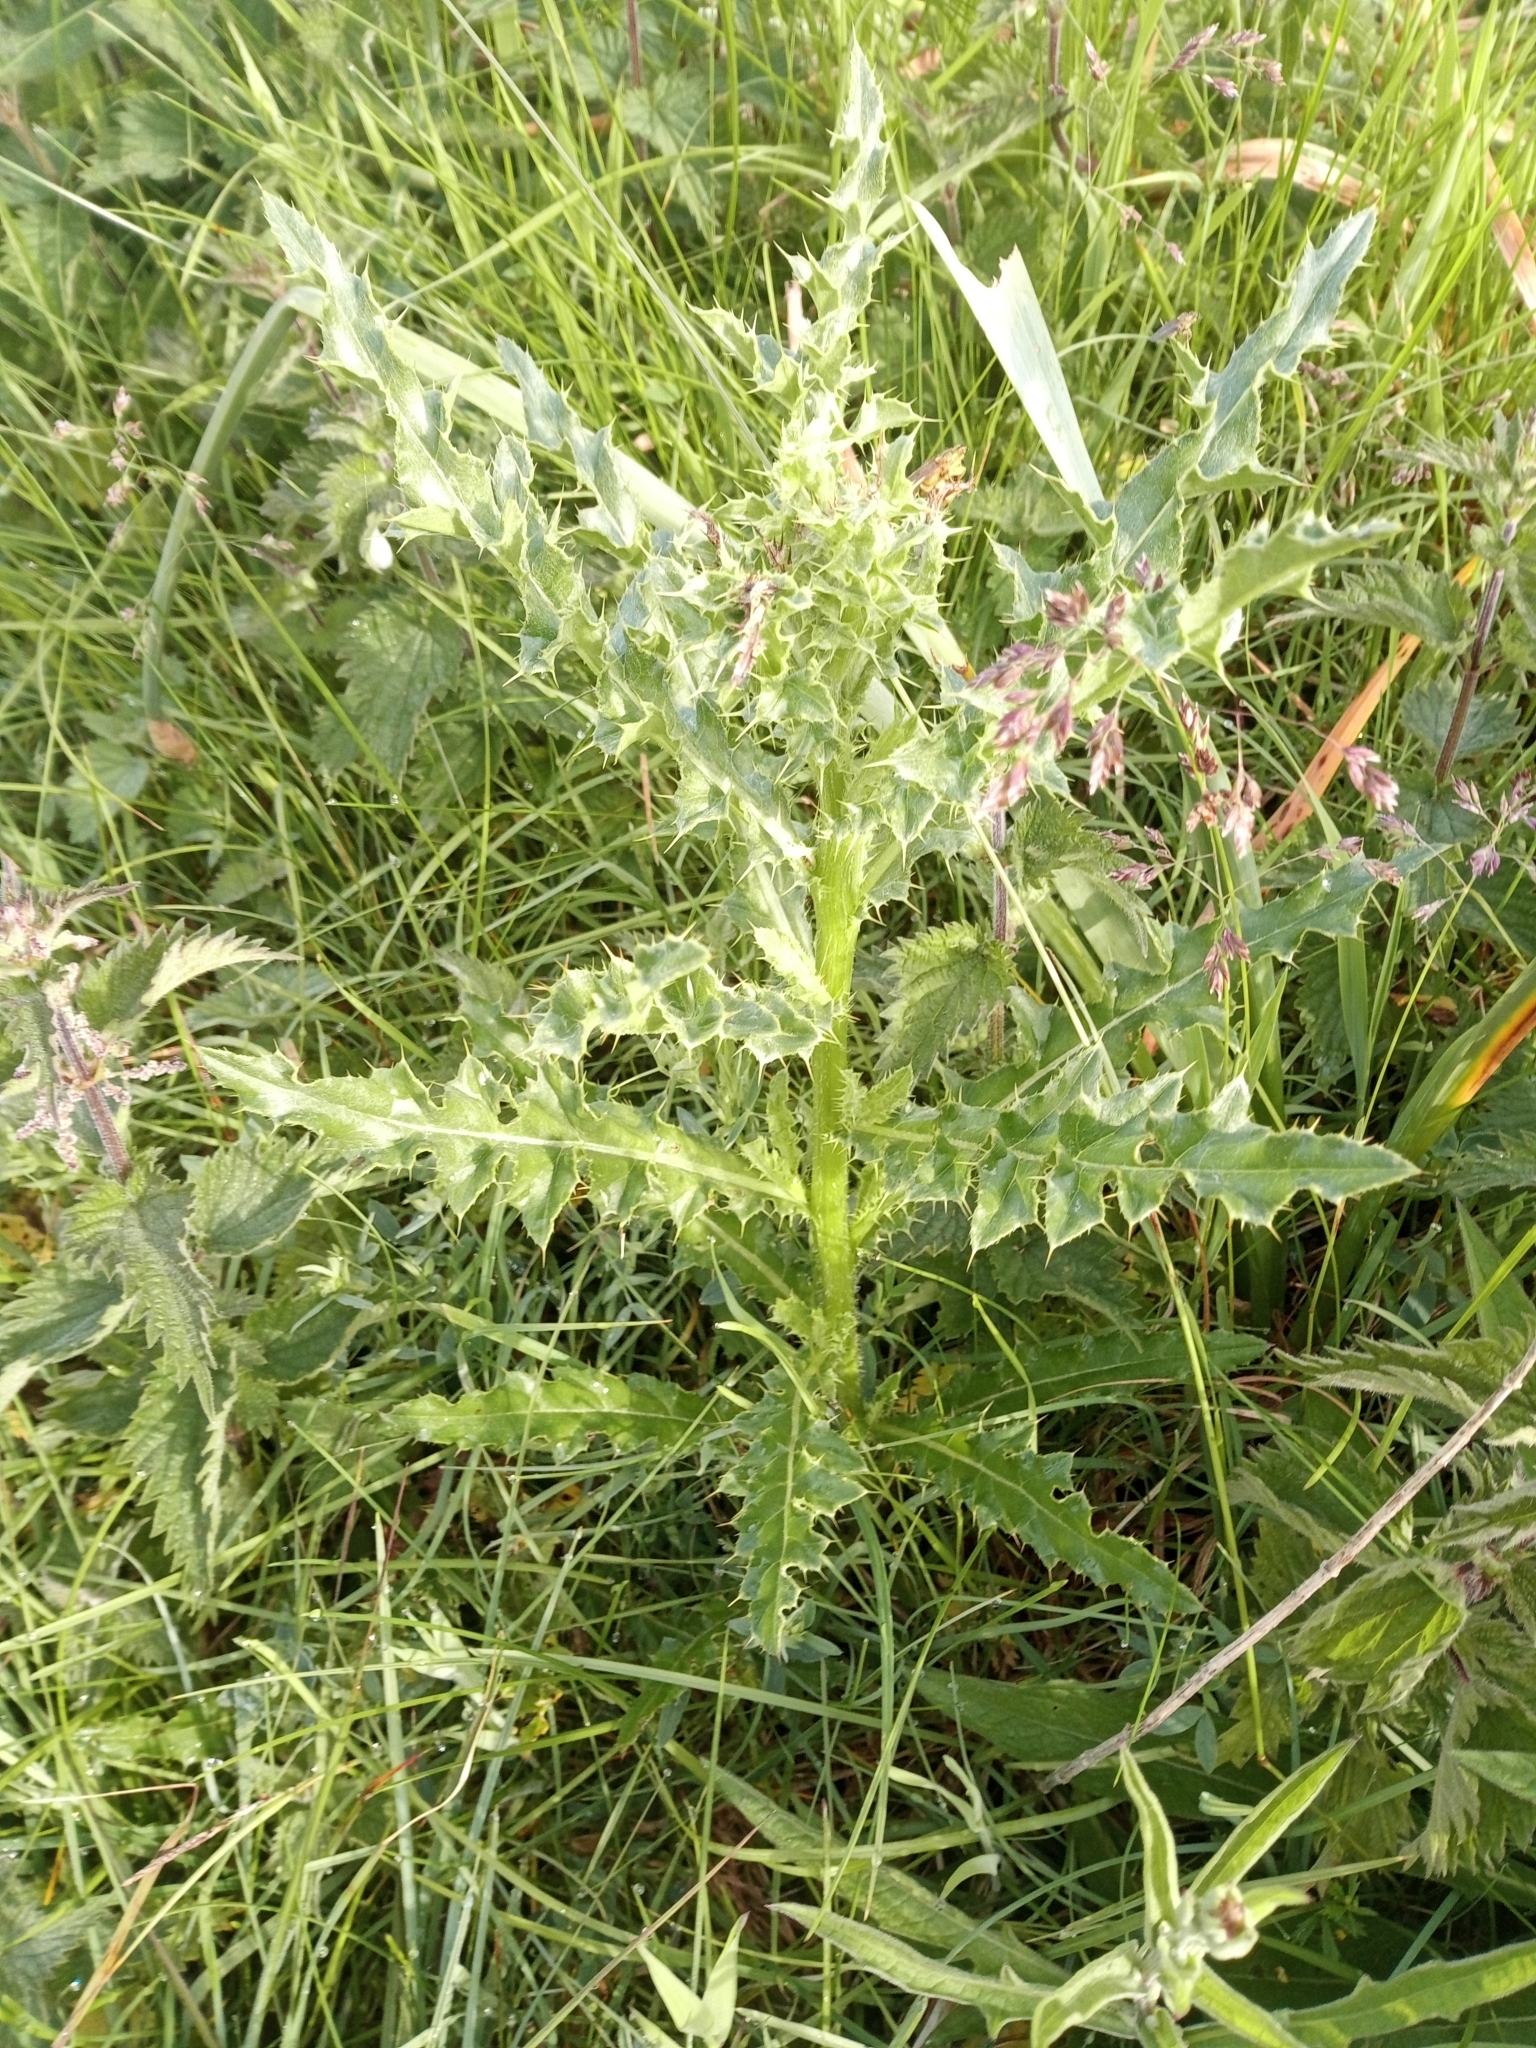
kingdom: Plantae
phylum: Tracheophyta
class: Magnoliopsida
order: Asterales
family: Asteraceae
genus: Cirsium
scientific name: Cirsium arvense
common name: Creeping thistle
